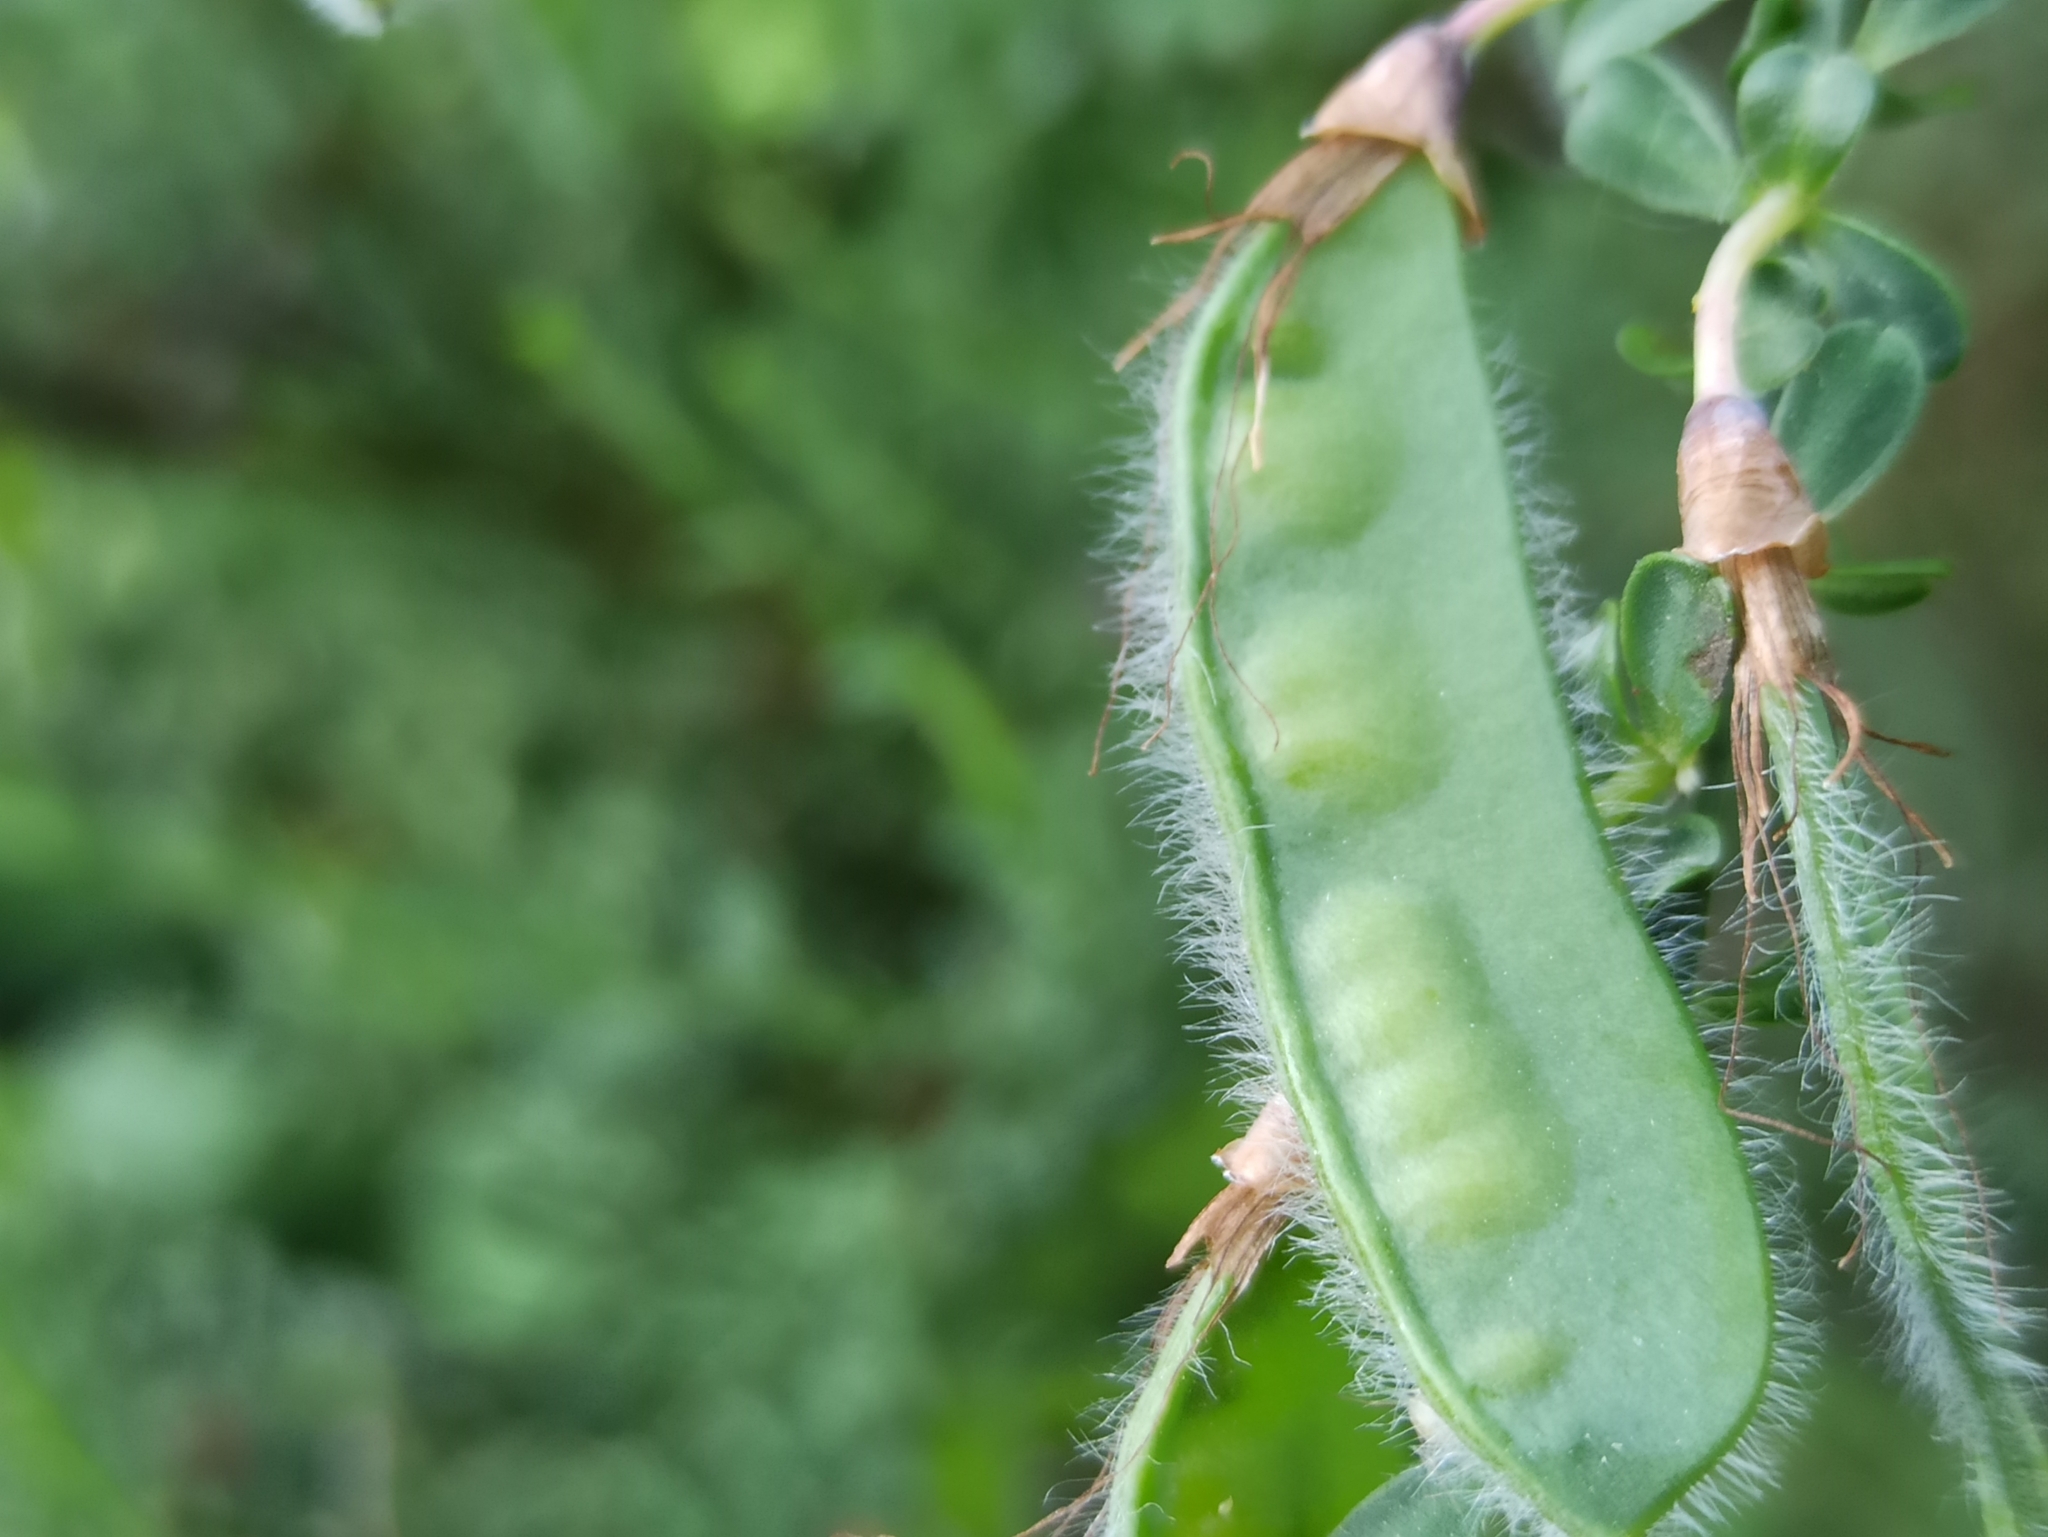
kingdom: Plantae
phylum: Tracheophyta
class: Magnoliopsida
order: Fabales
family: Fabaceae
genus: Cytisus
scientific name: Cytisus scoparius
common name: Scotch broom
